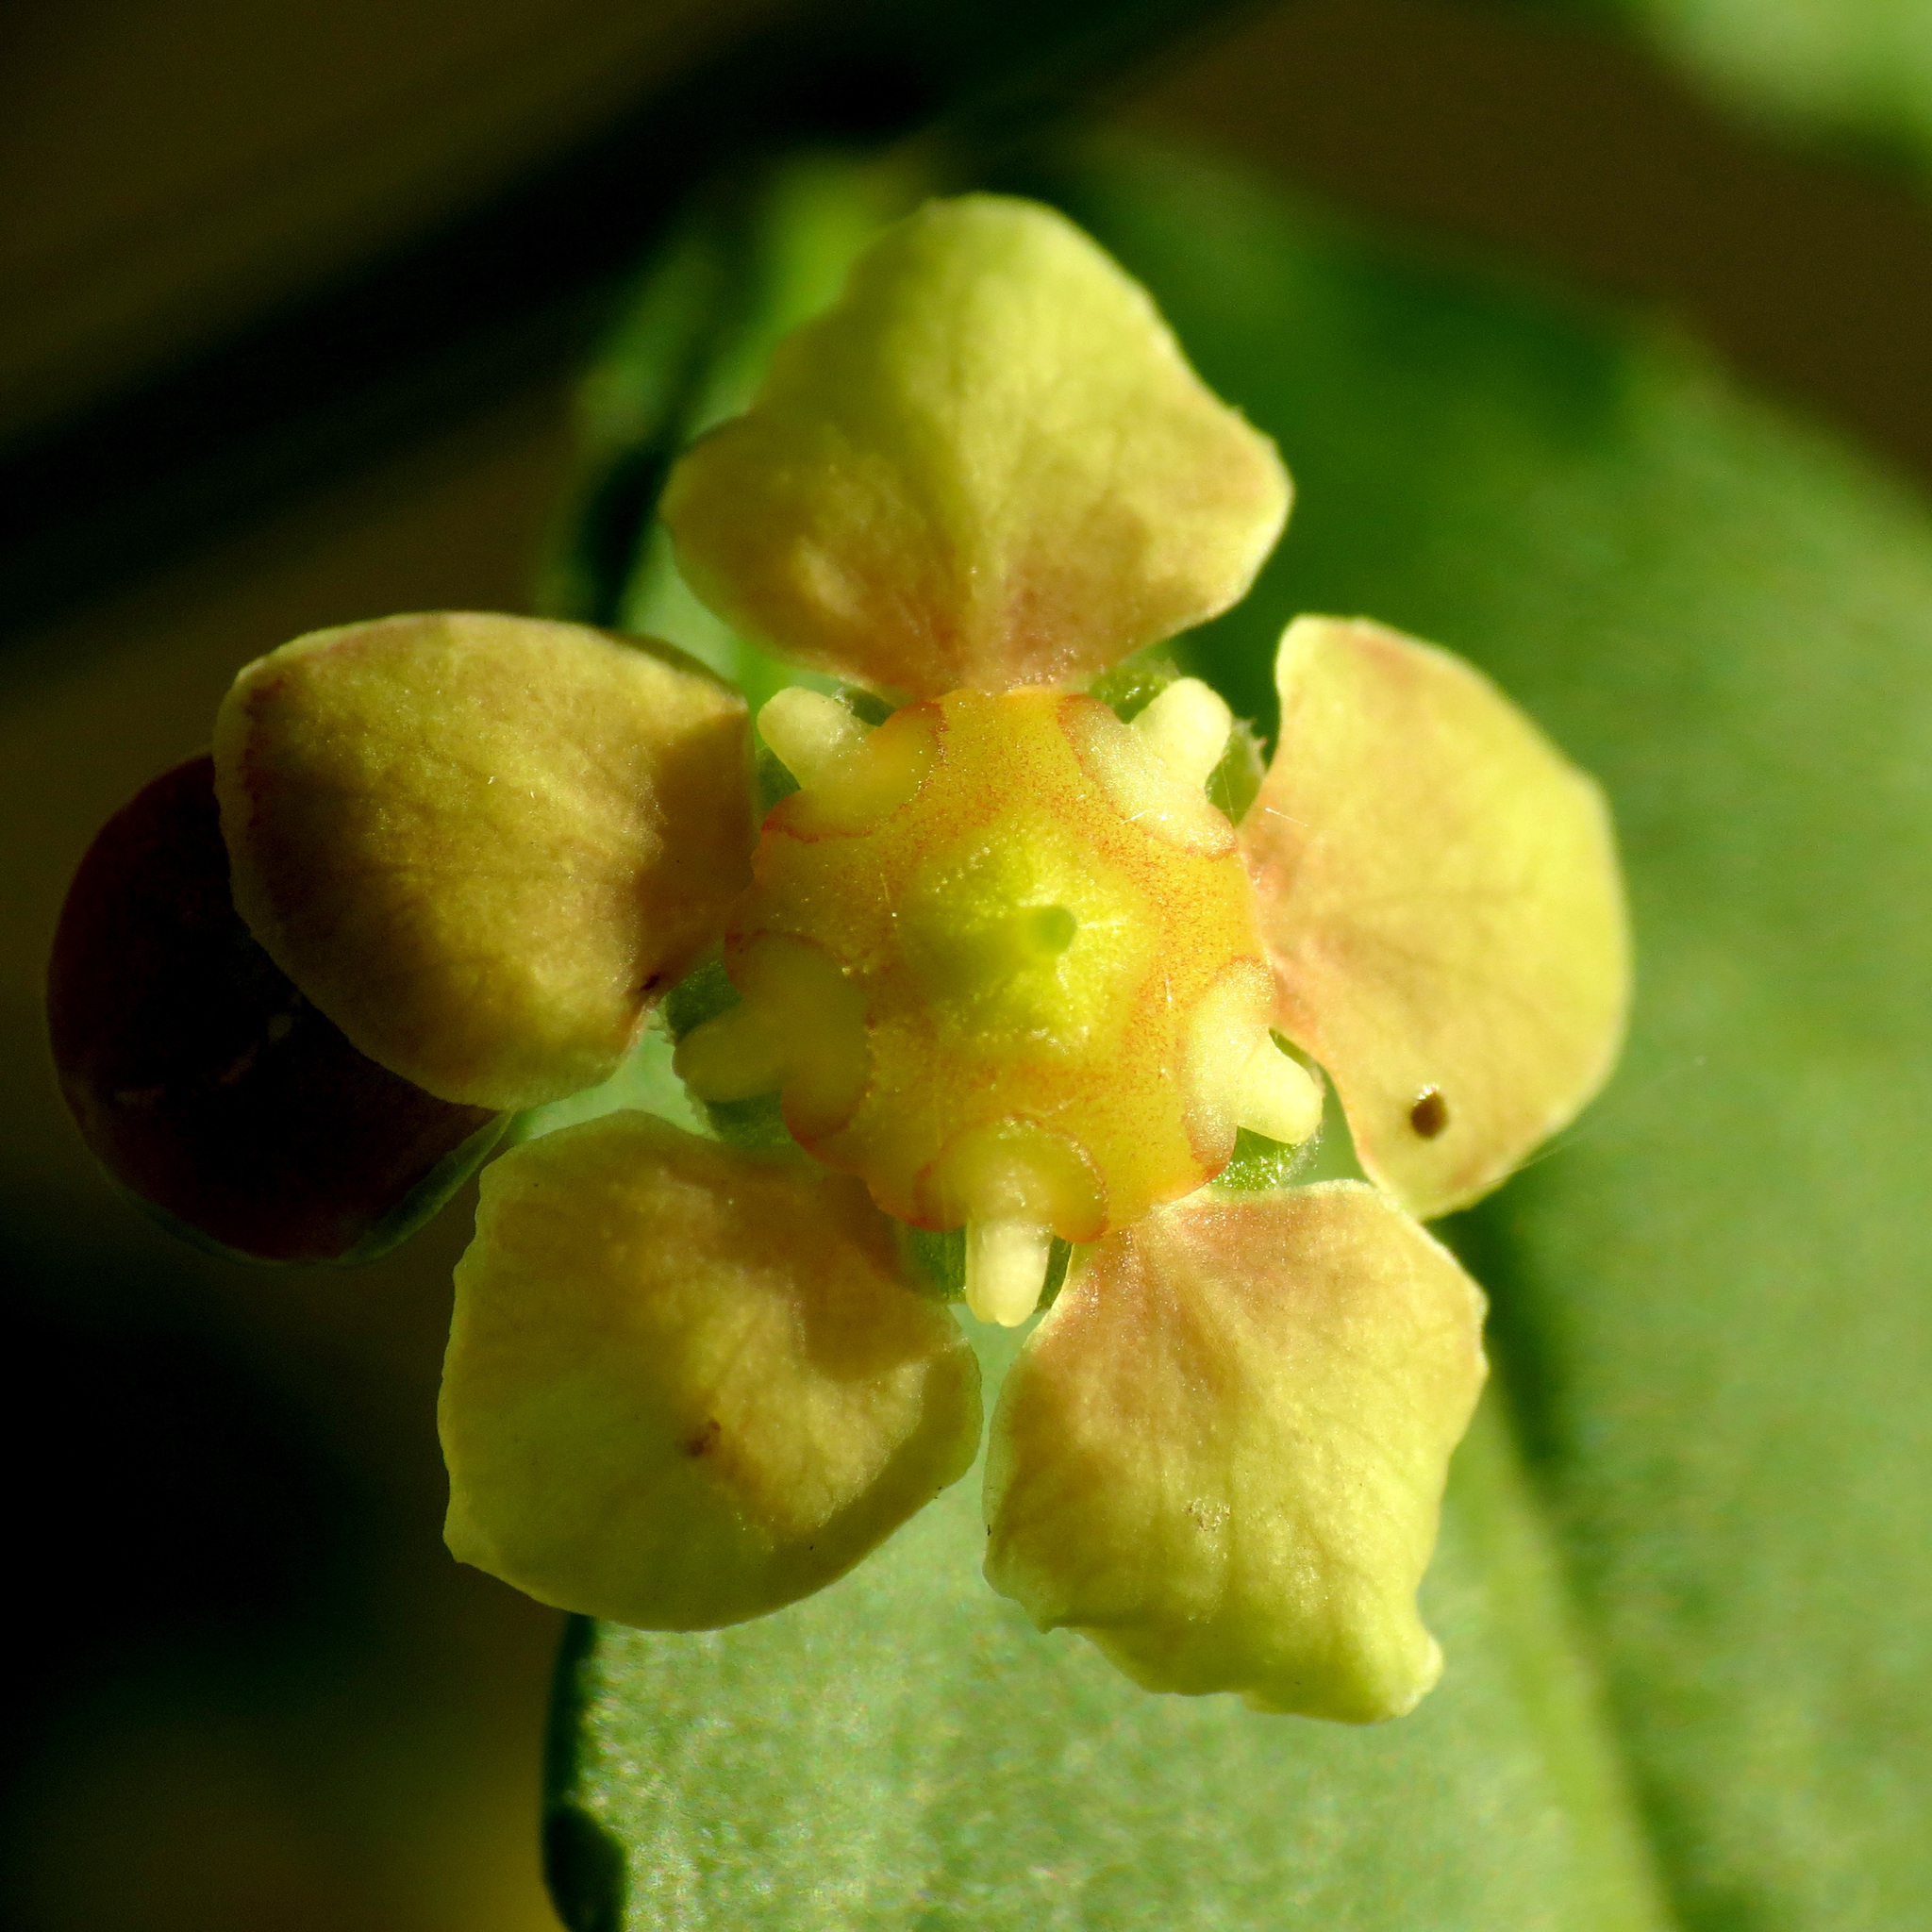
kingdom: Plantae
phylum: Tracheophyta
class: Magnoliopsida
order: Celastrales
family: Celastraceae
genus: Euonymus
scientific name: Euonymus americanus
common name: Bursting-heart
